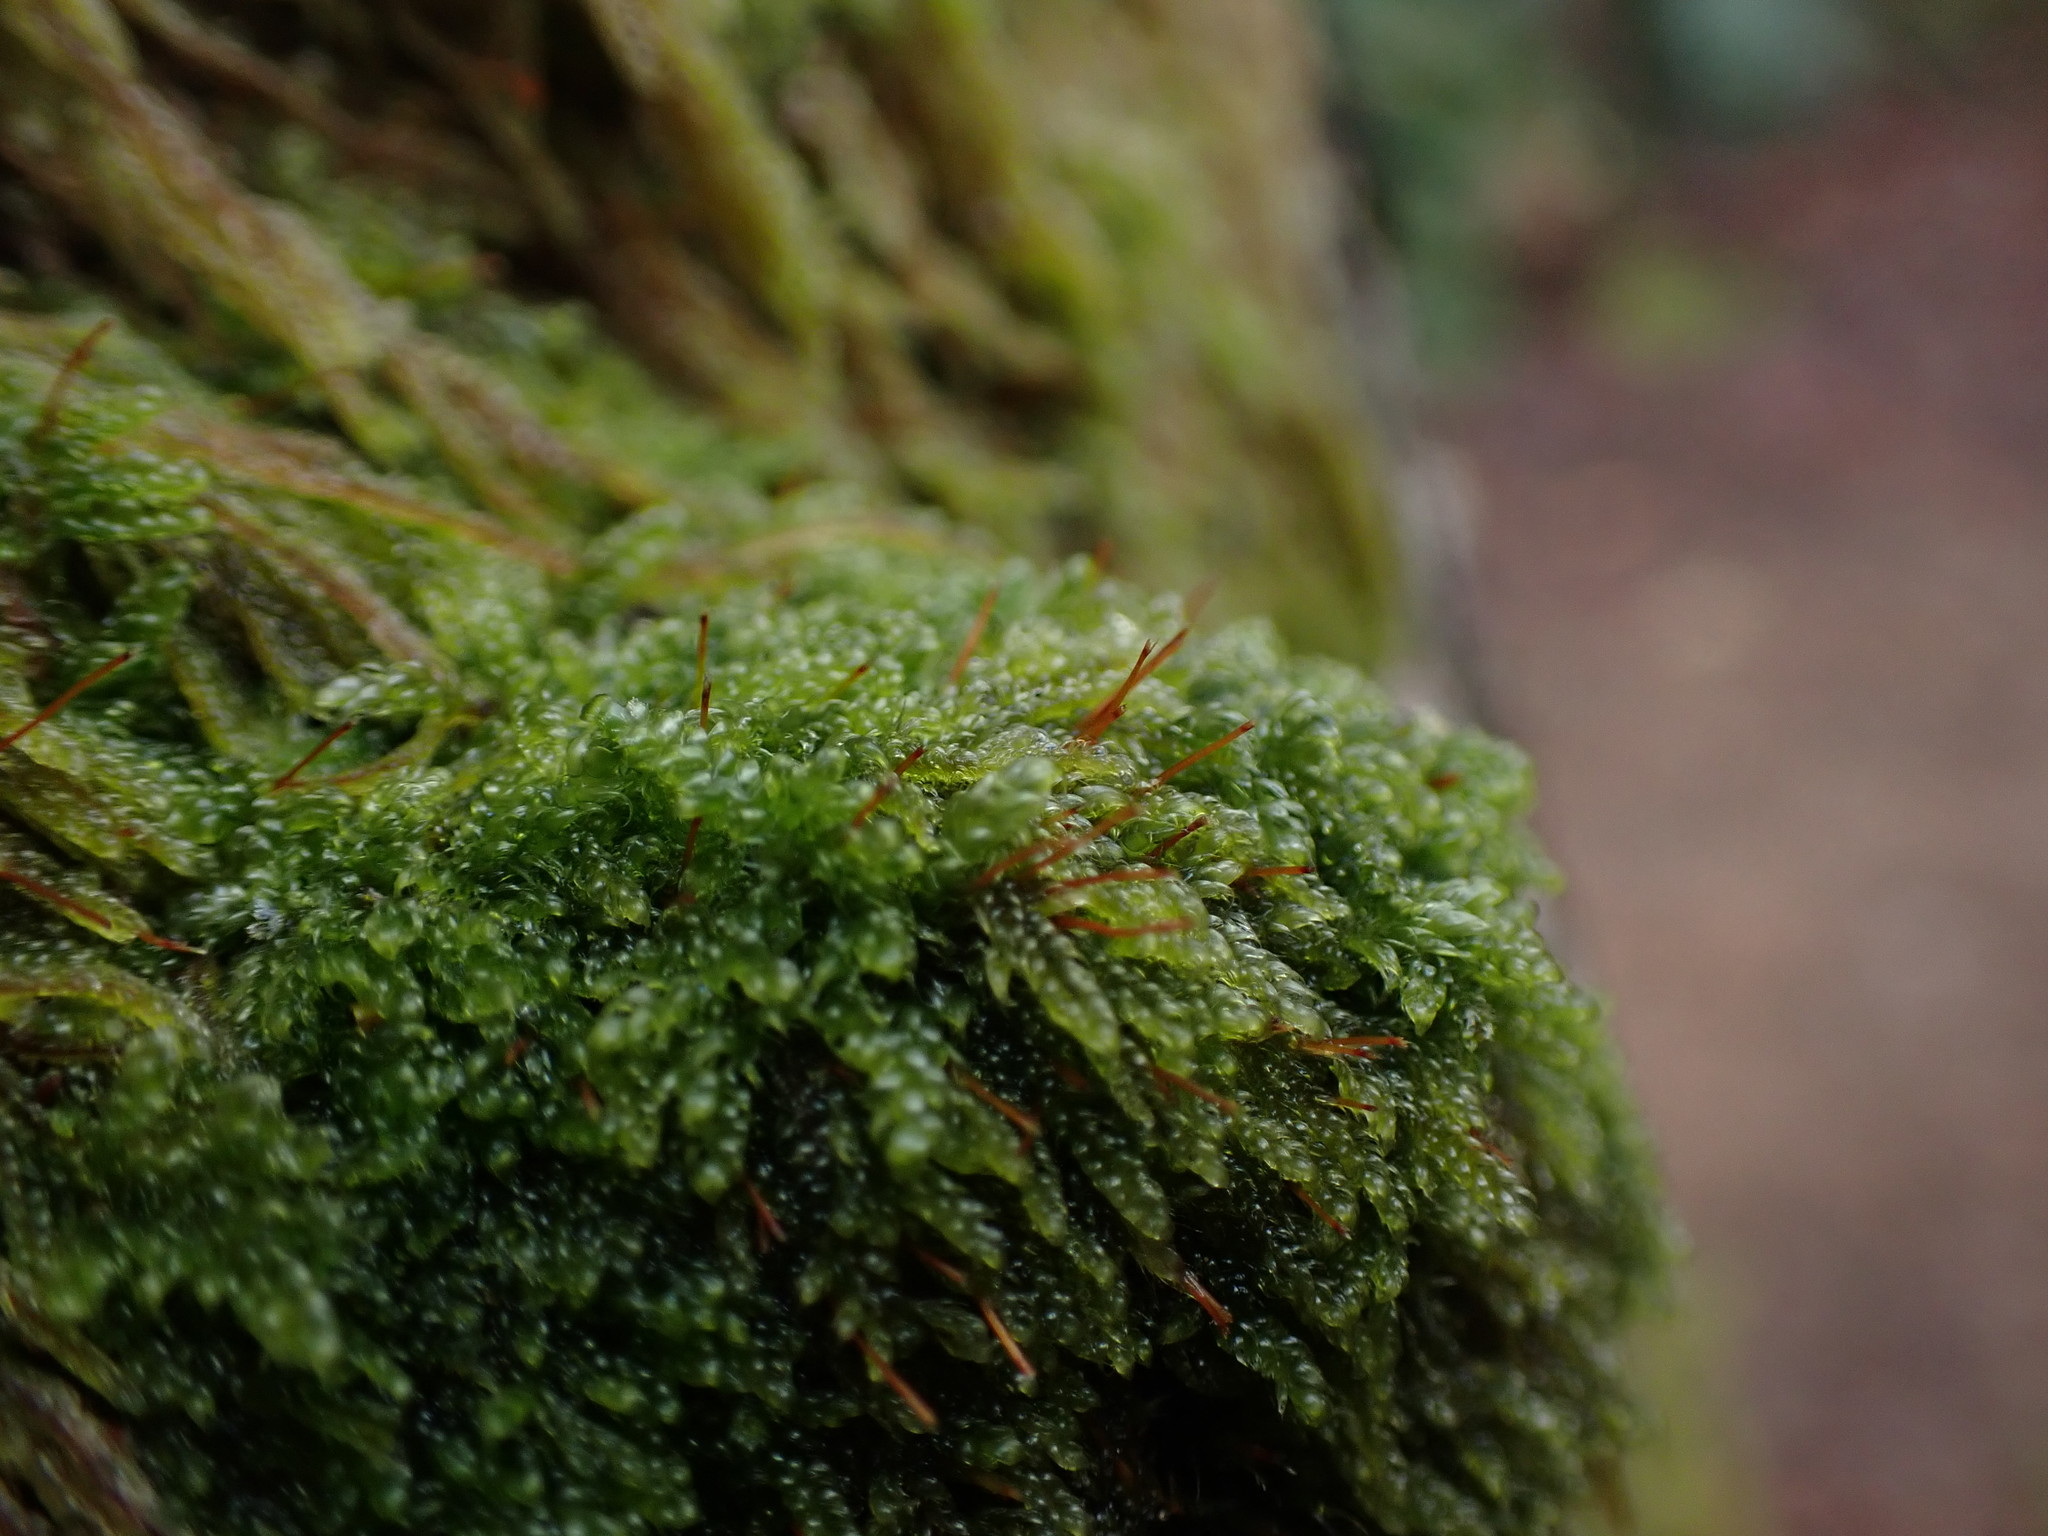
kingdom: Plantae
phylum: Bryophyta
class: Bryopsida
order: Hypnales
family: Pylaisiadelphaceae
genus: Trochophyllohypnum
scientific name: Trochophyllohypnum circinale
